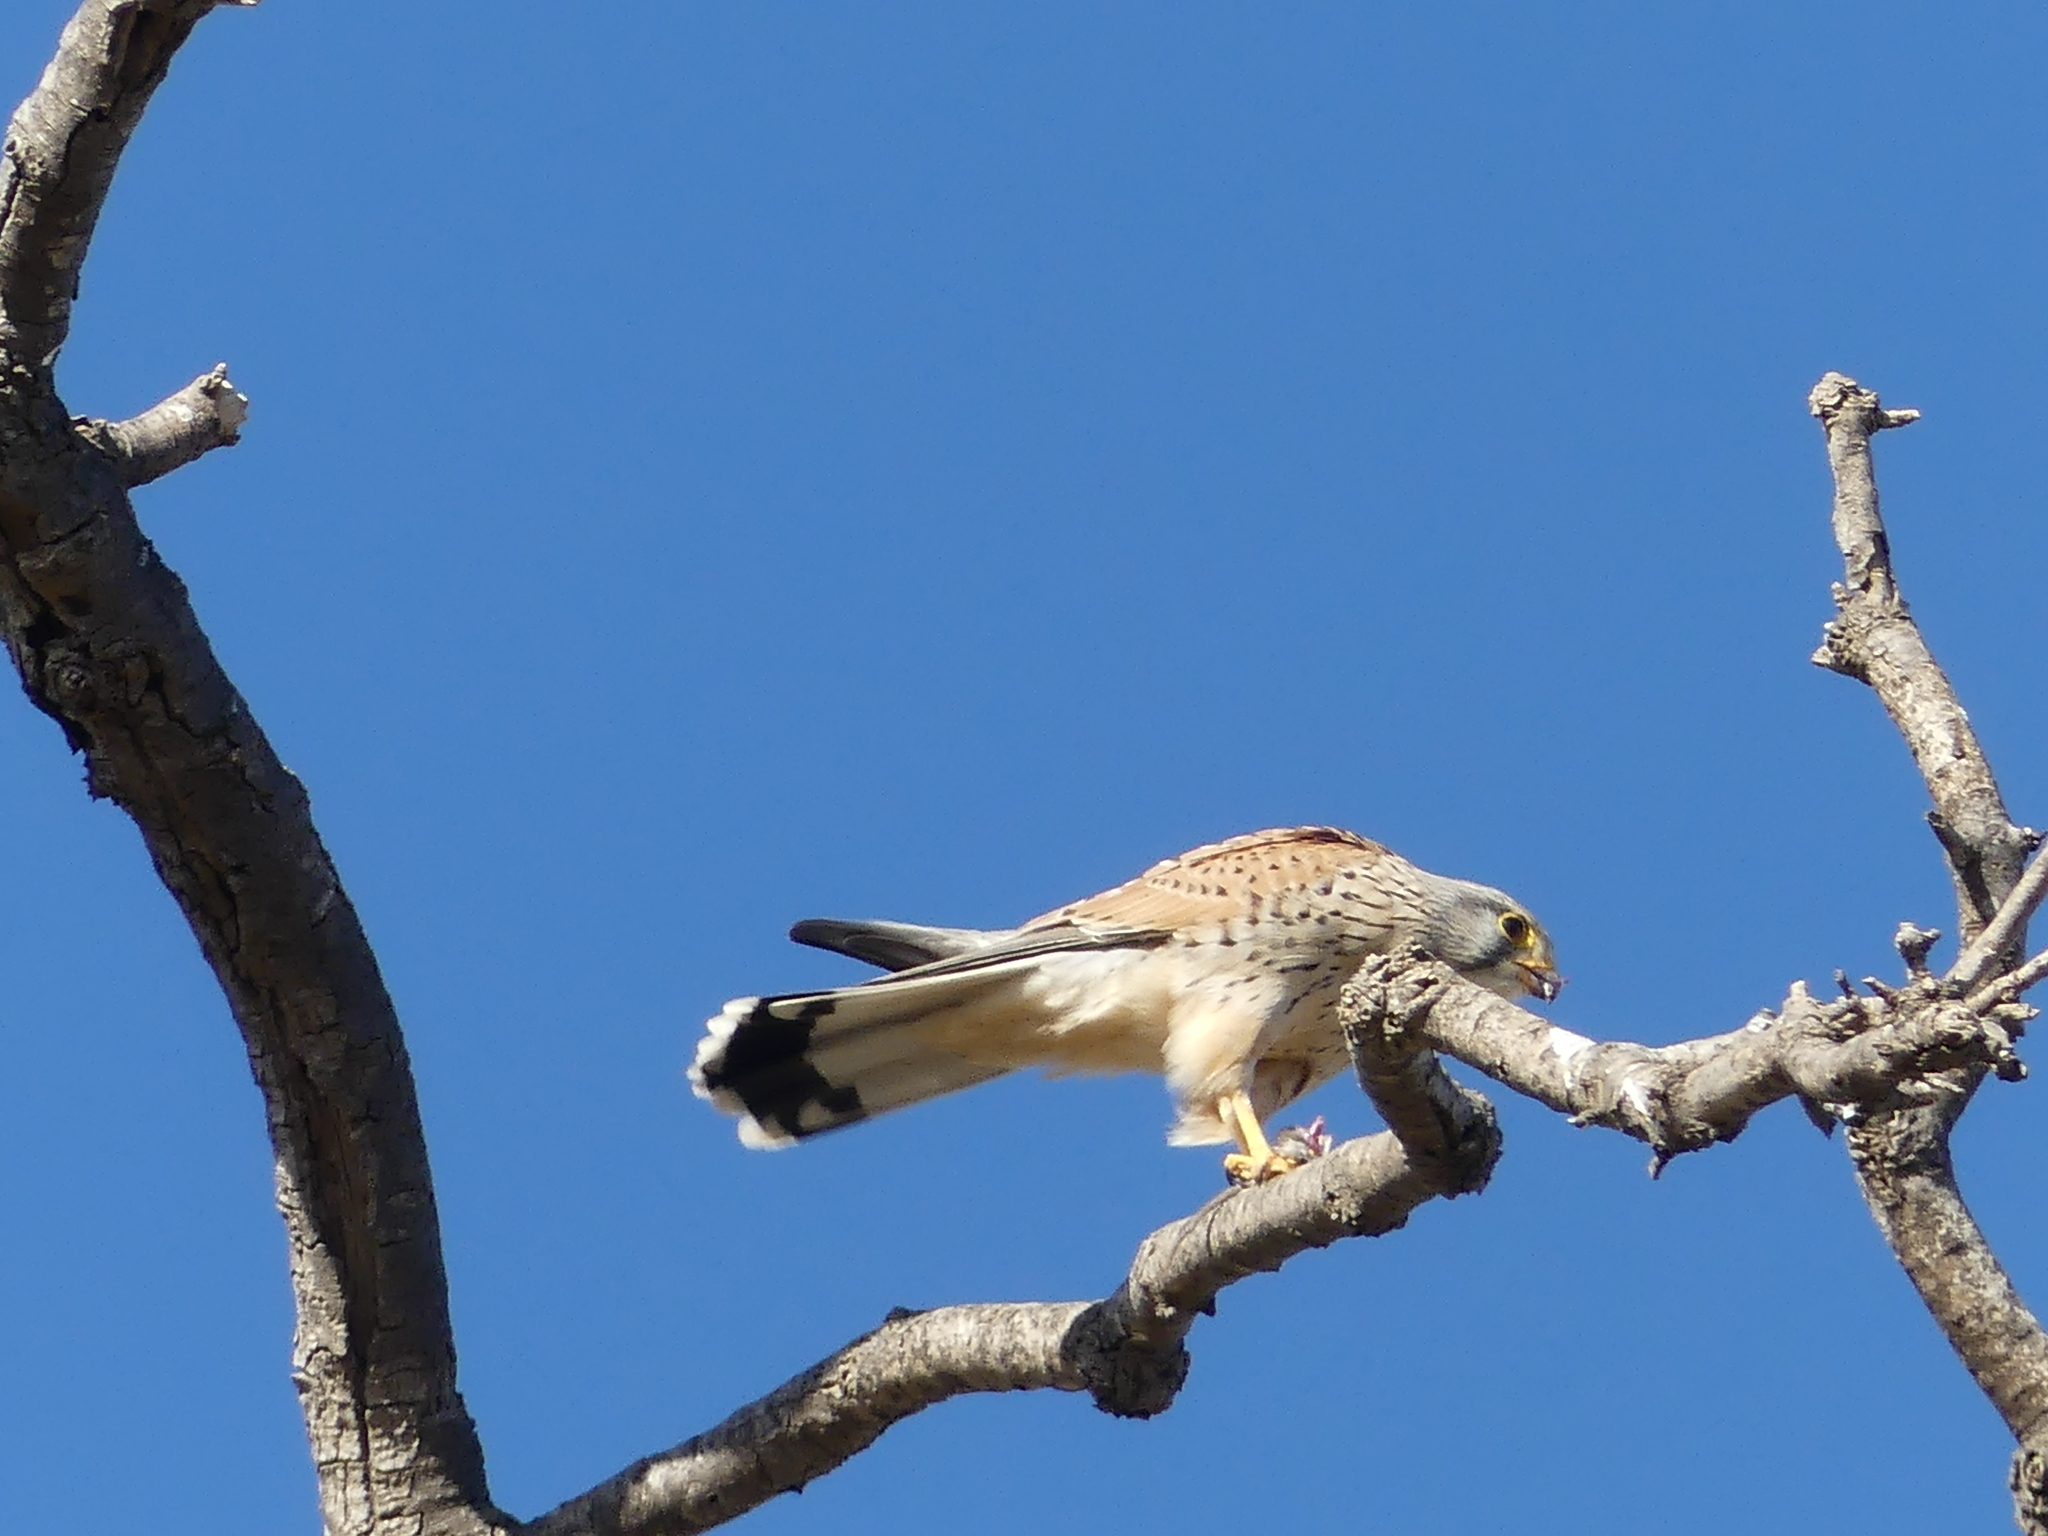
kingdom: Animalia
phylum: Chordata
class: Aves
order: Falconiformes
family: Falconidae
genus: Falco
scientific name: Falco tinnunculus
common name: Common kestrel
